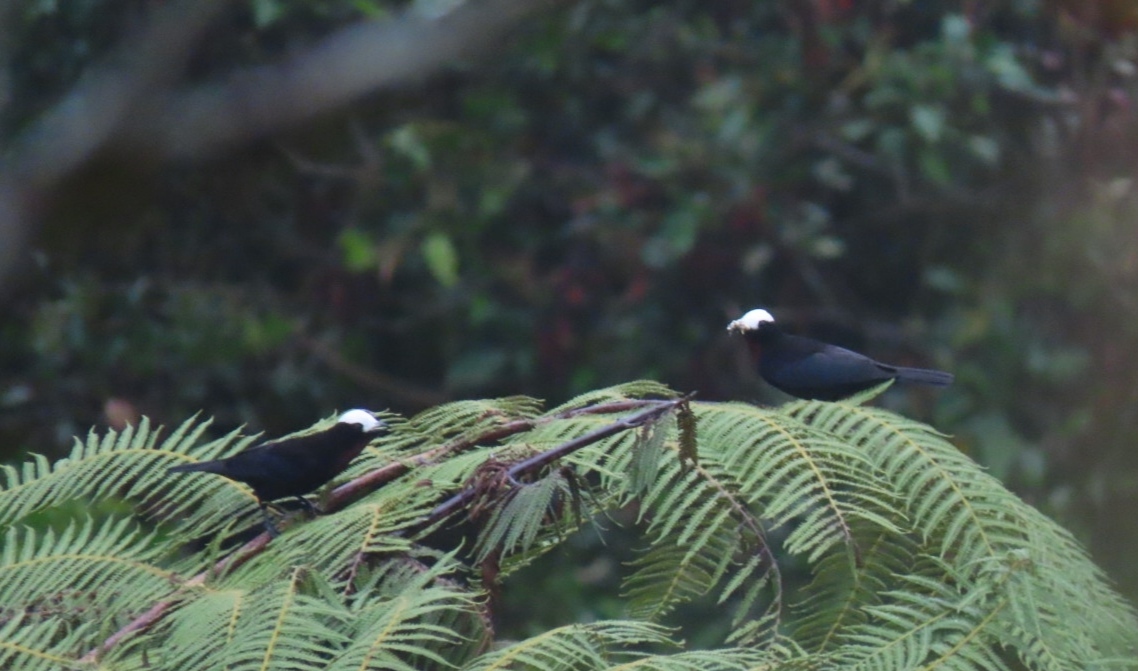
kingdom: Animalia
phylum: Chordata
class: Aves
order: Passeriformes
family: Thraupidae
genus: Sericossypha
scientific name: Sericossypha albocristata
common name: White-capped tanager
